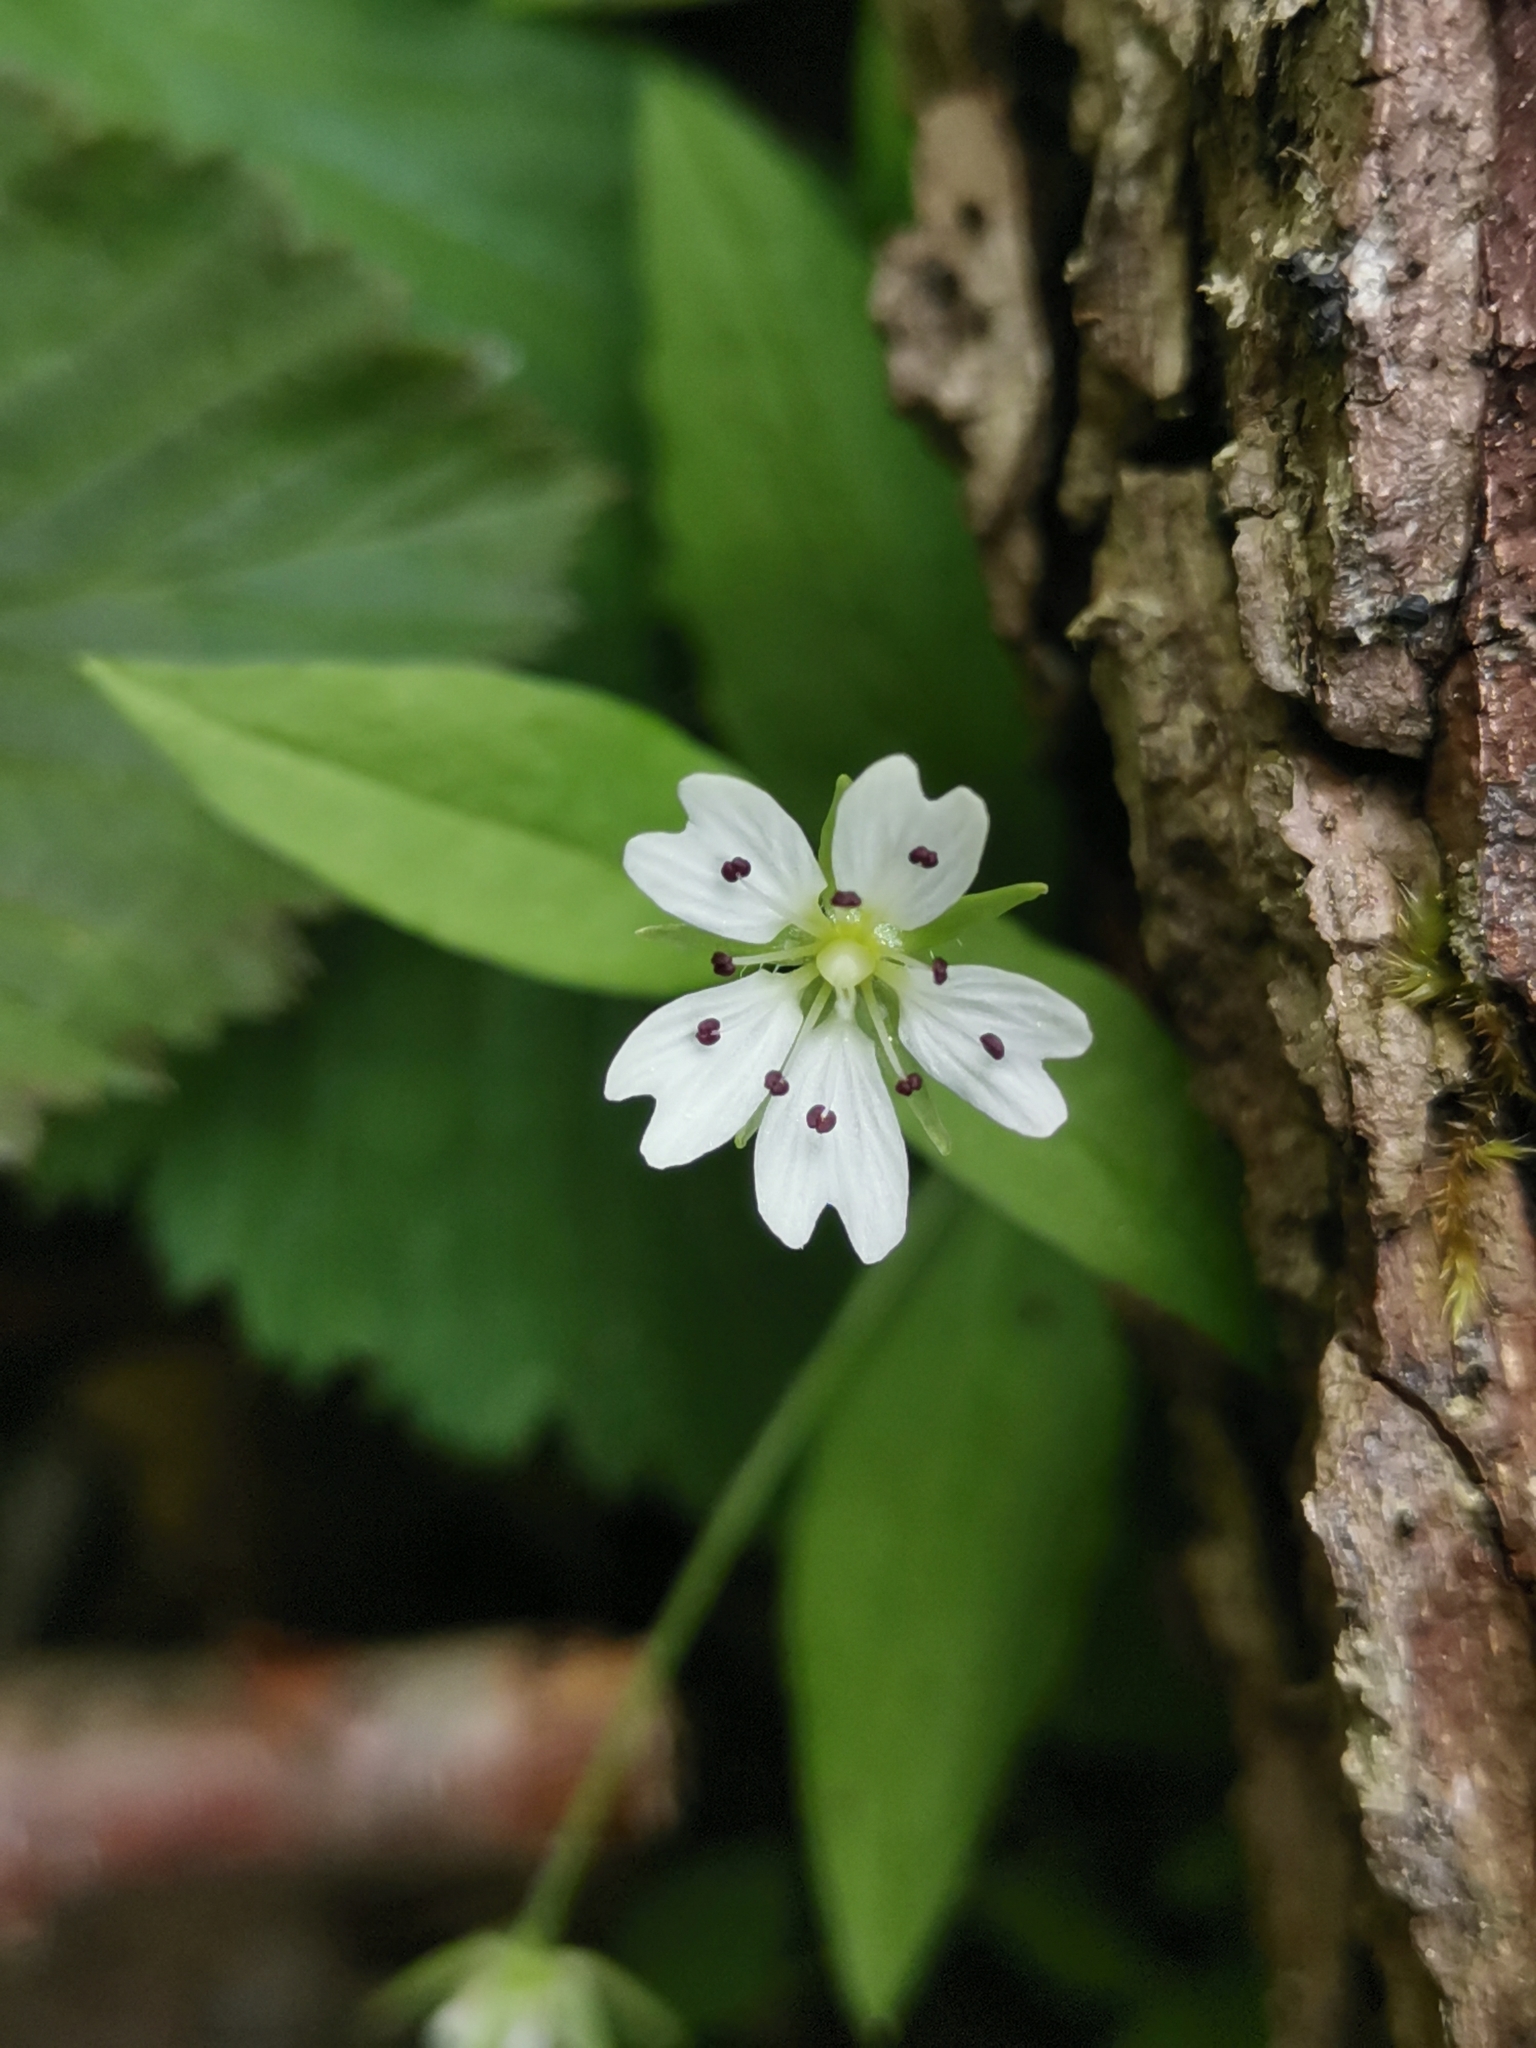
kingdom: Plantae
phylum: Tracheophyta
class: Magnoliopsida
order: Caryophyllales
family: Caryophyllaceae
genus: Pseudostellaria
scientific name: Pseudostellaria europaea
